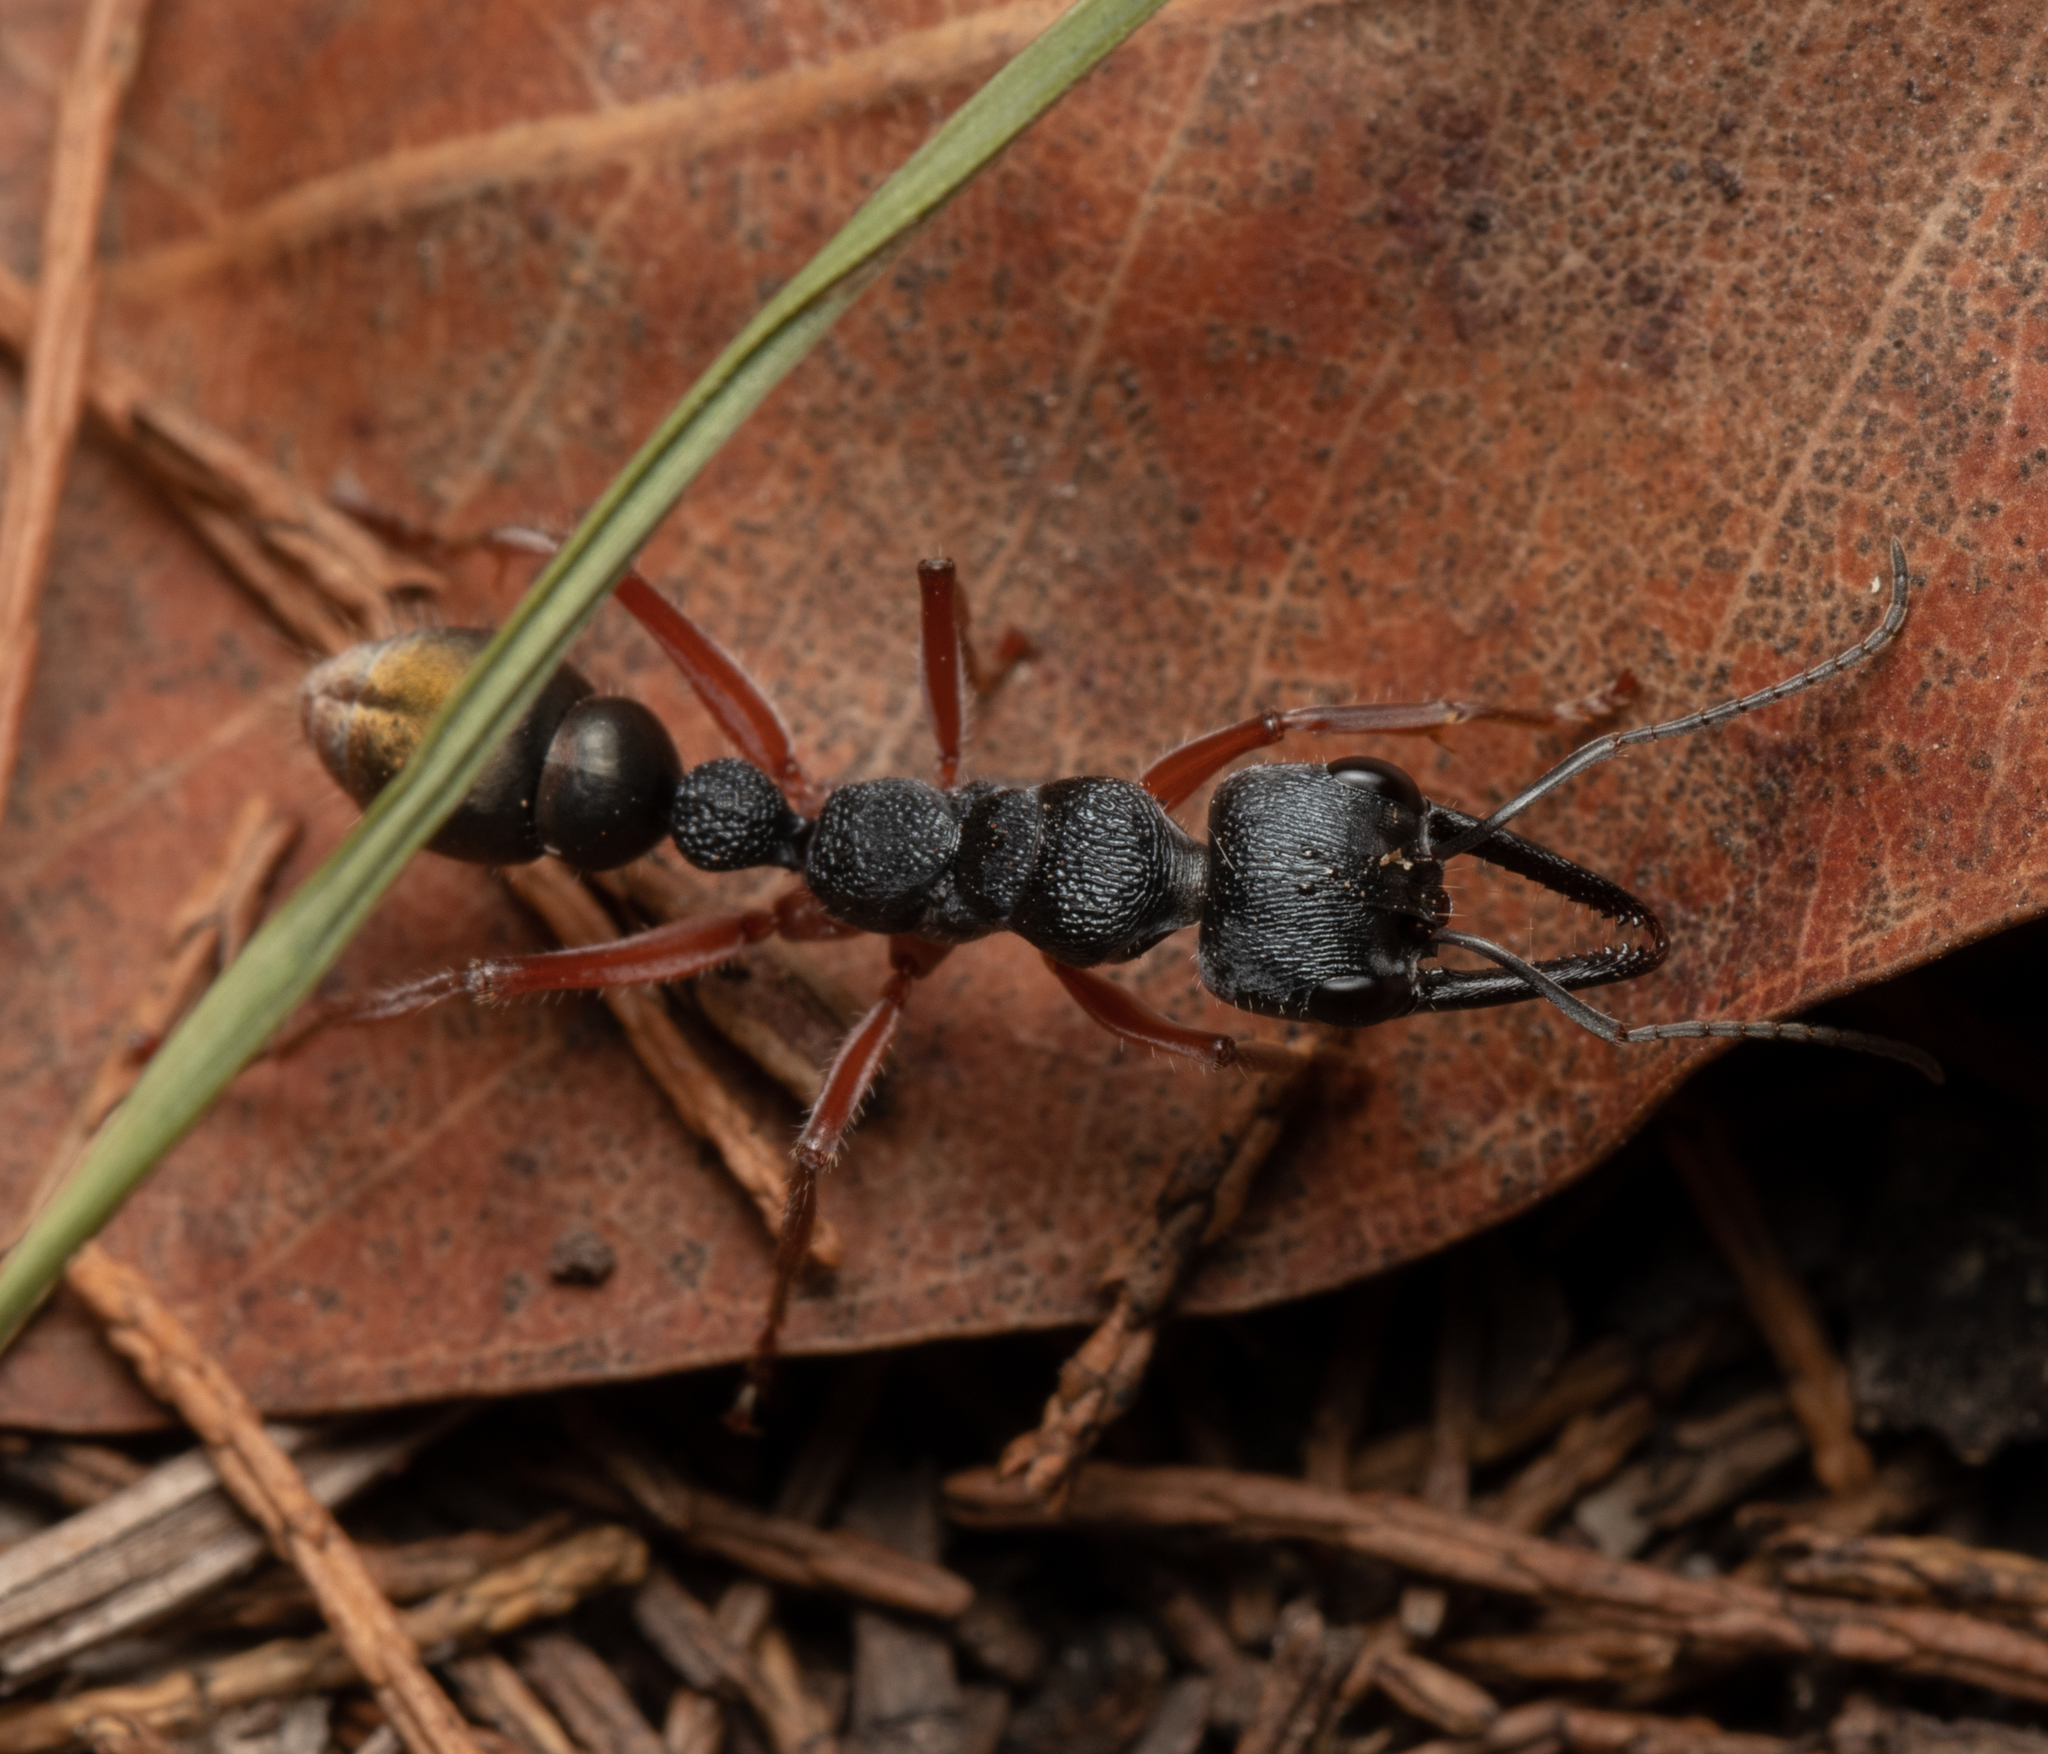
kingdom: Animalia
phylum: Arthropoda
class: Insecta
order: Hymenoptera
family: Formicidae
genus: Myrmecia
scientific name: Myrmecia fulviculis
